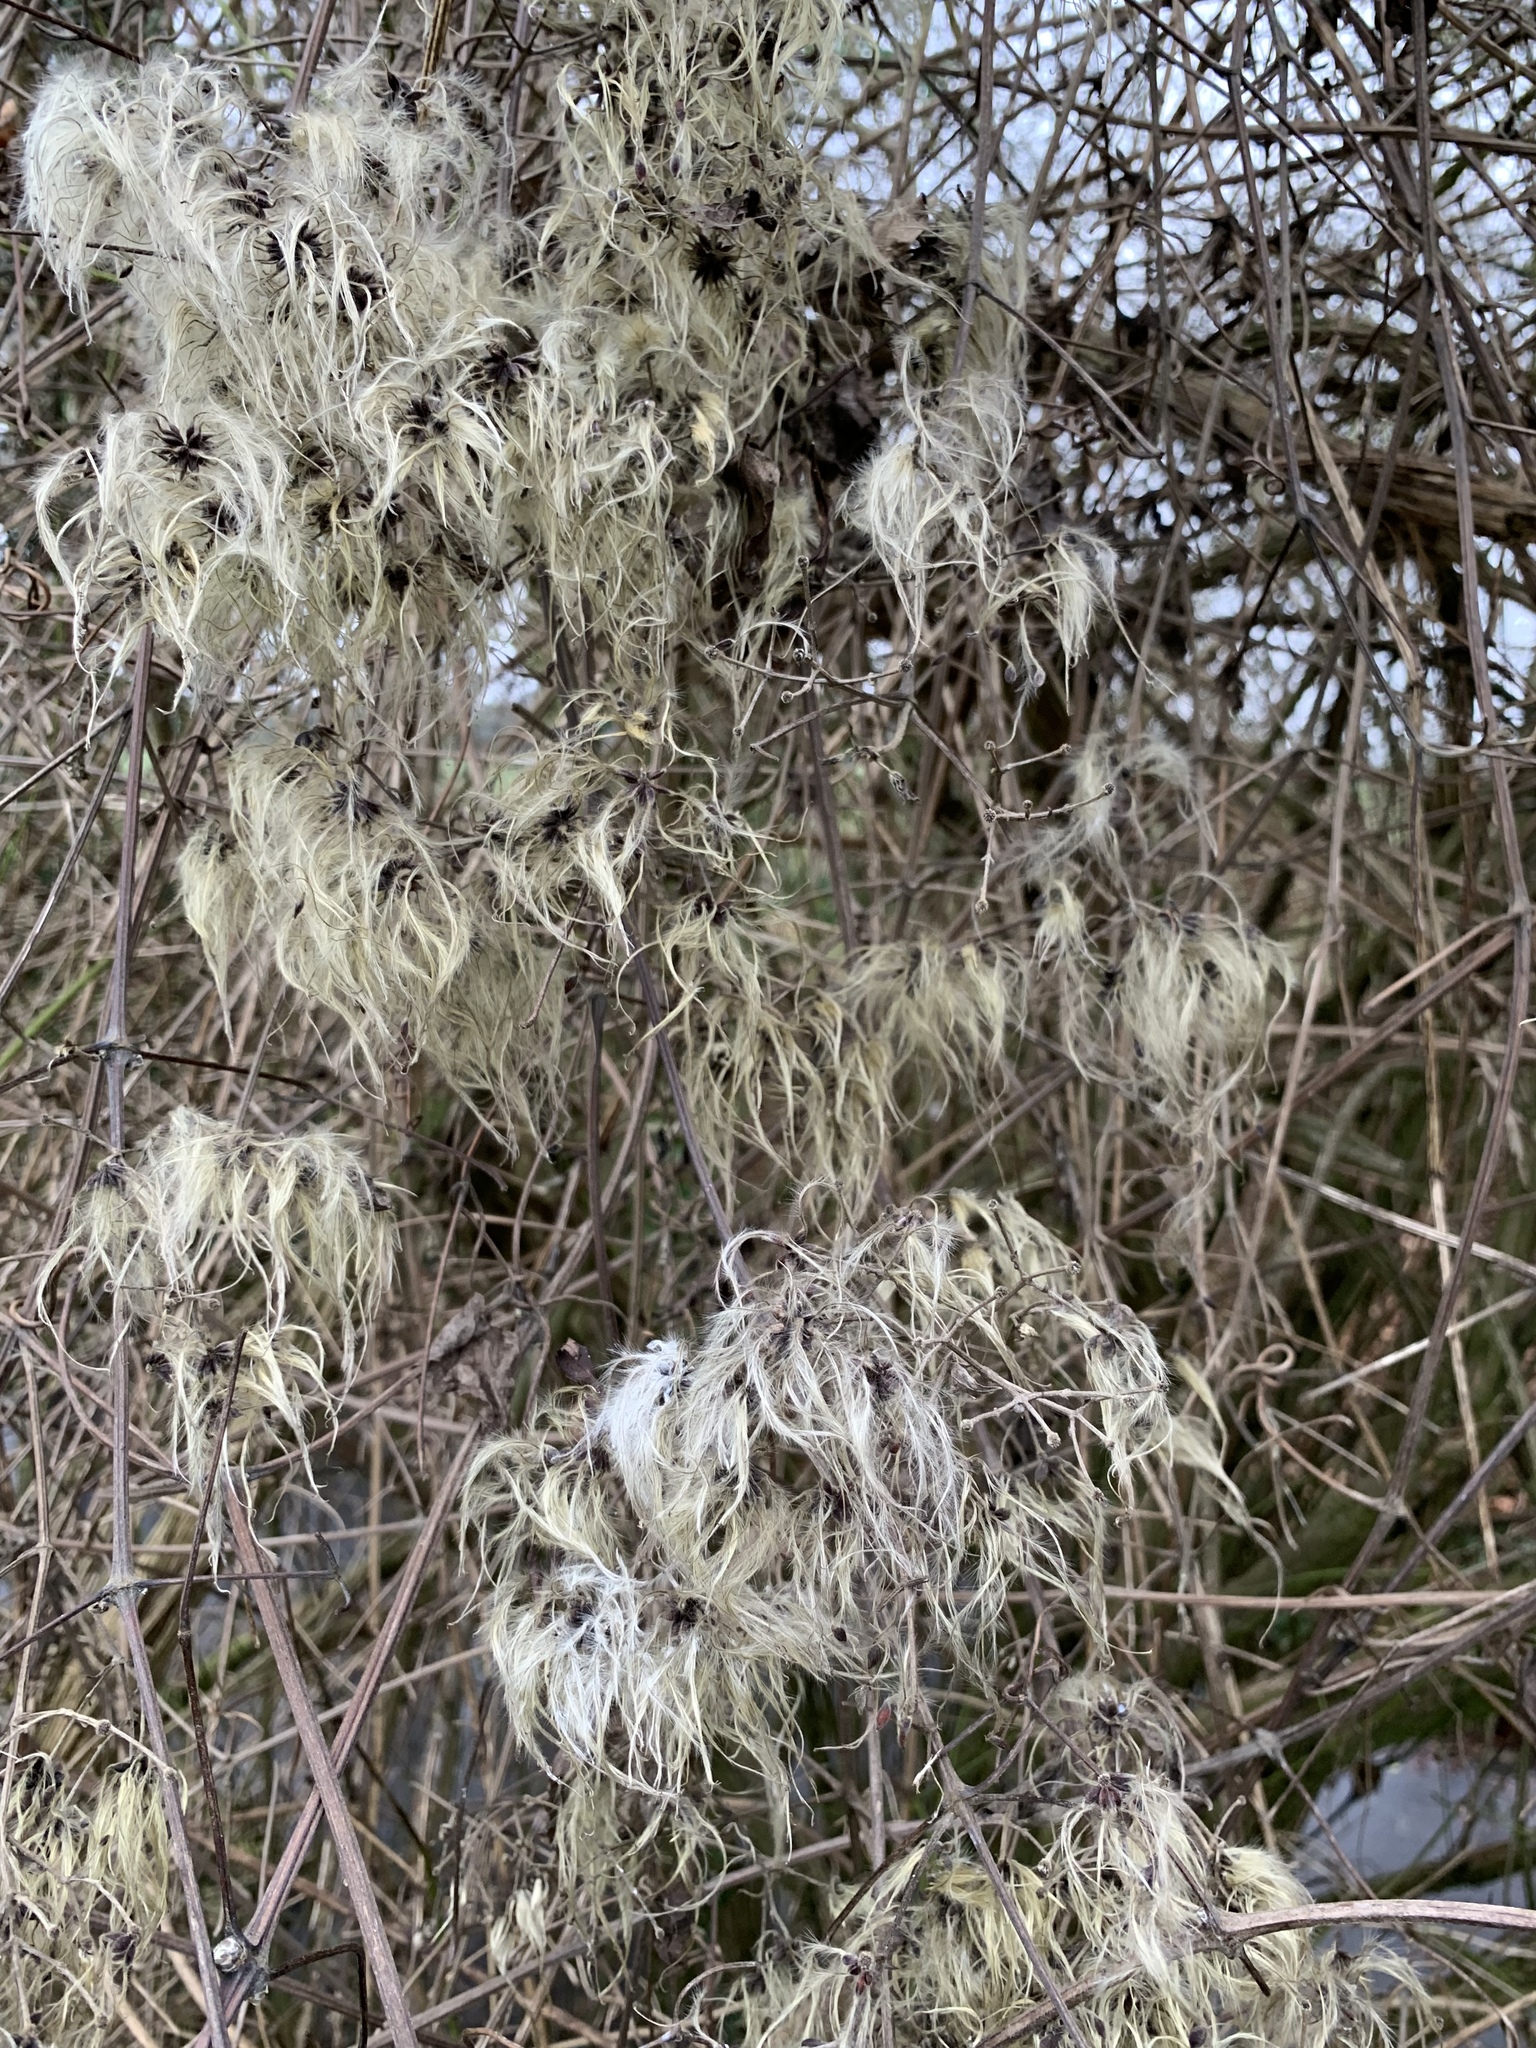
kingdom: Plantae
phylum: Tracheophyta
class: Magnoliopsida
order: Ranunculales
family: Ranunculaceae
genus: Clematis
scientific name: Clematis vitalba
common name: Evergreen clematis
